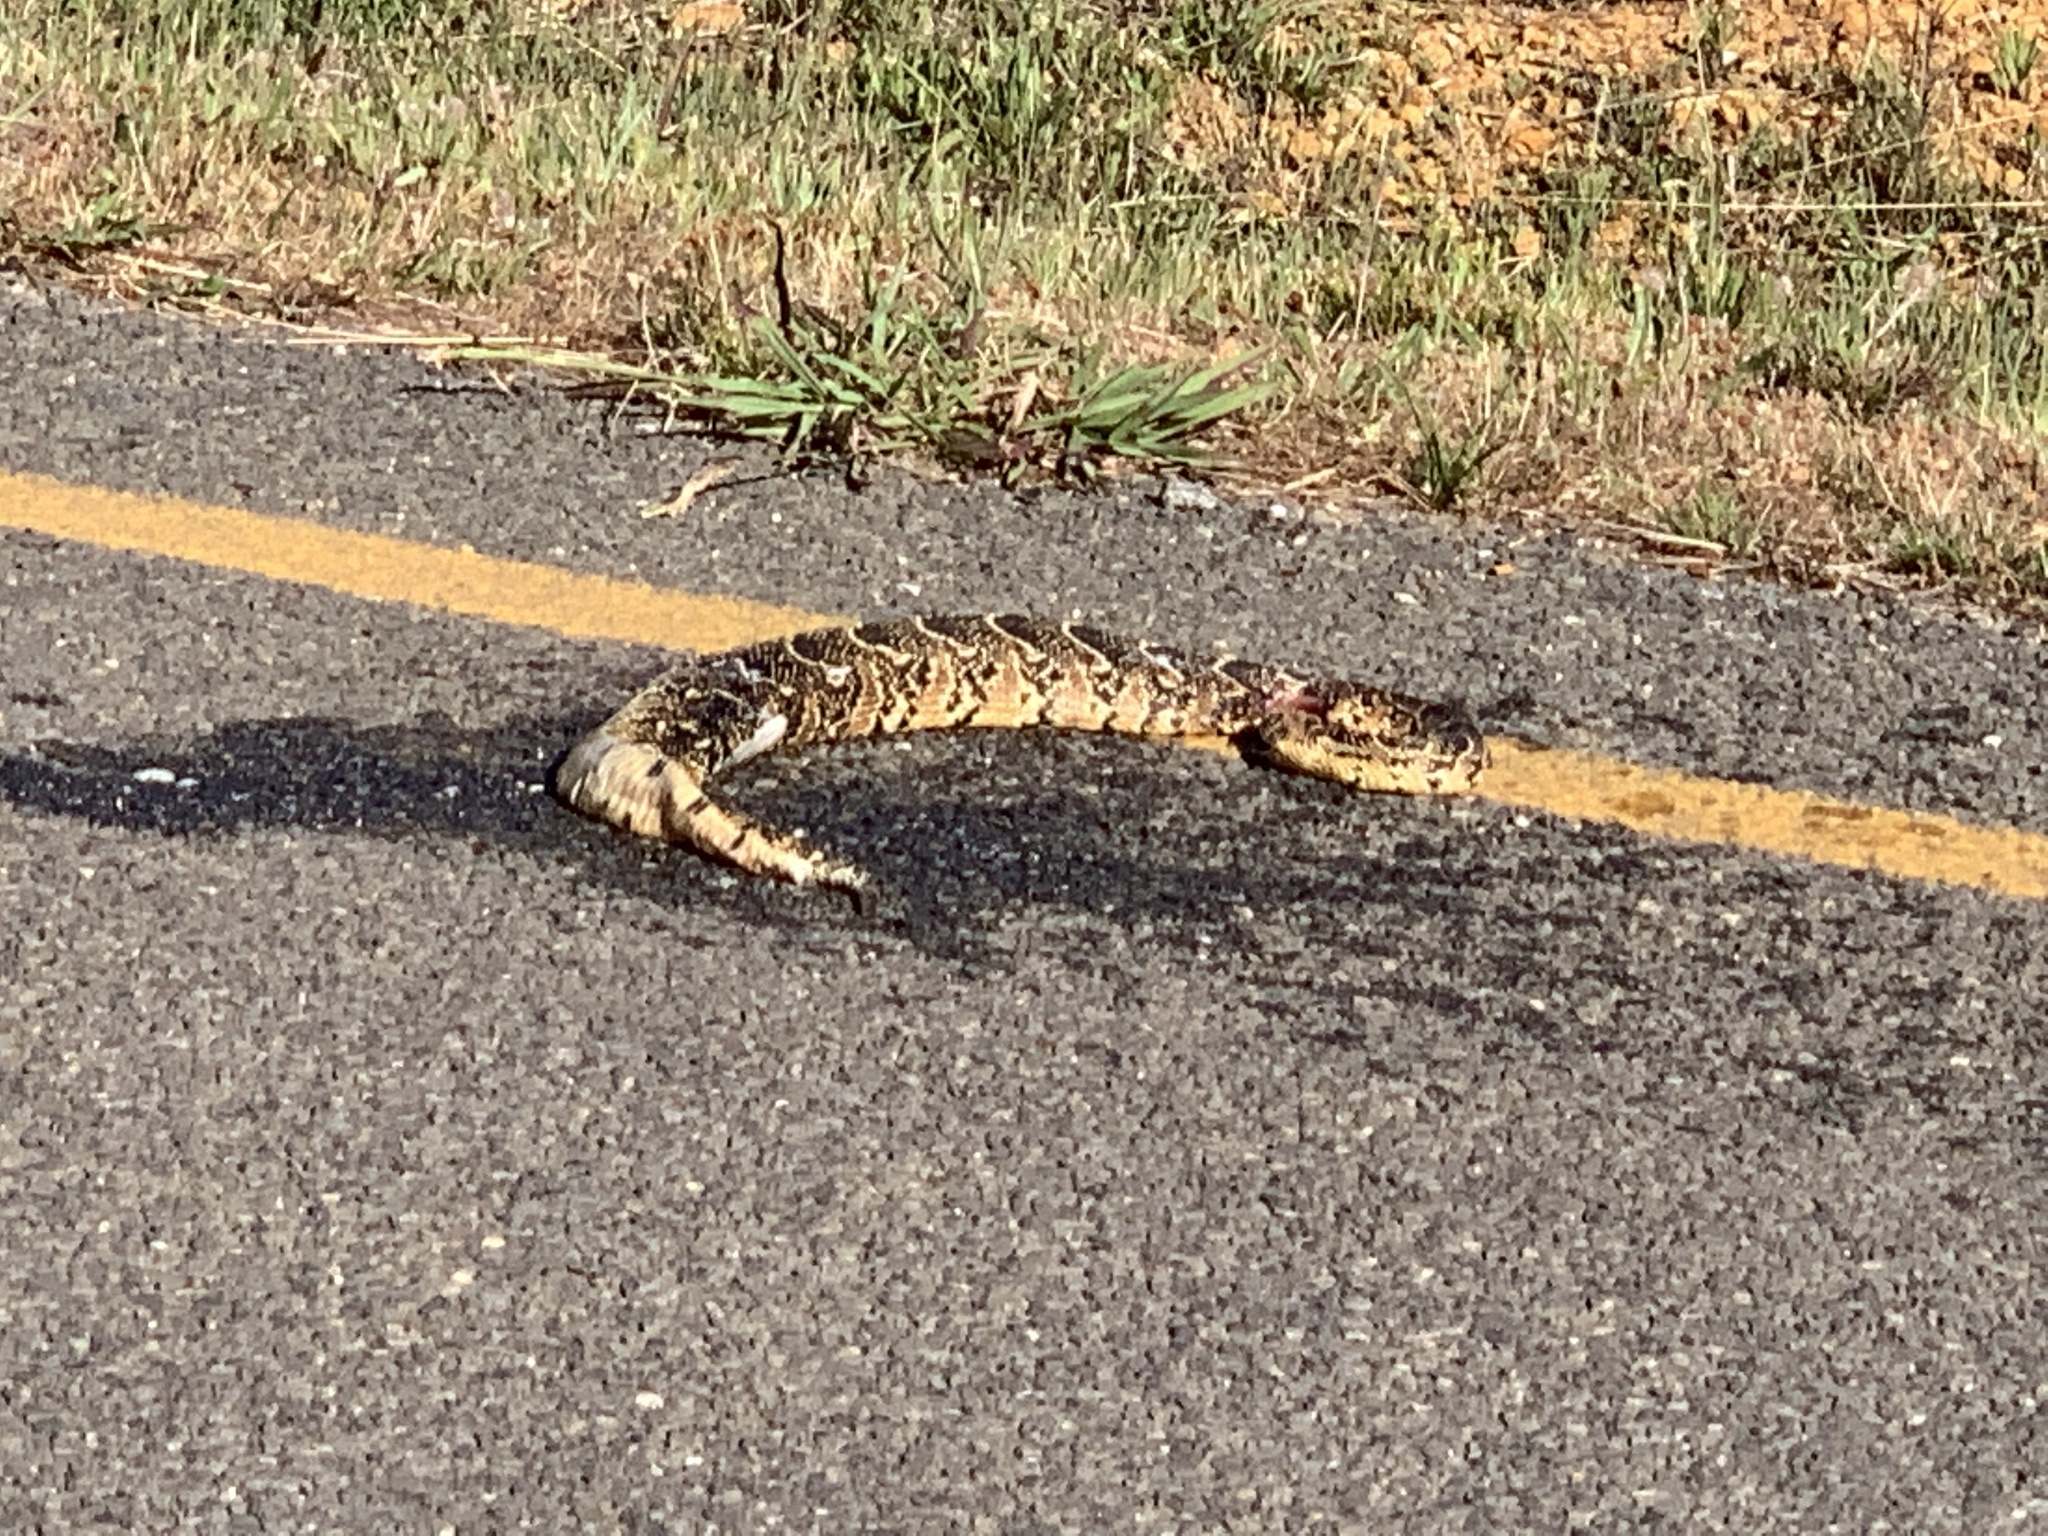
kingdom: Animalia
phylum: Chordata
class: Squamata
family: Viperidae
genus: Bitis
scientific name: Bitis arietans
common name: Puff adder
